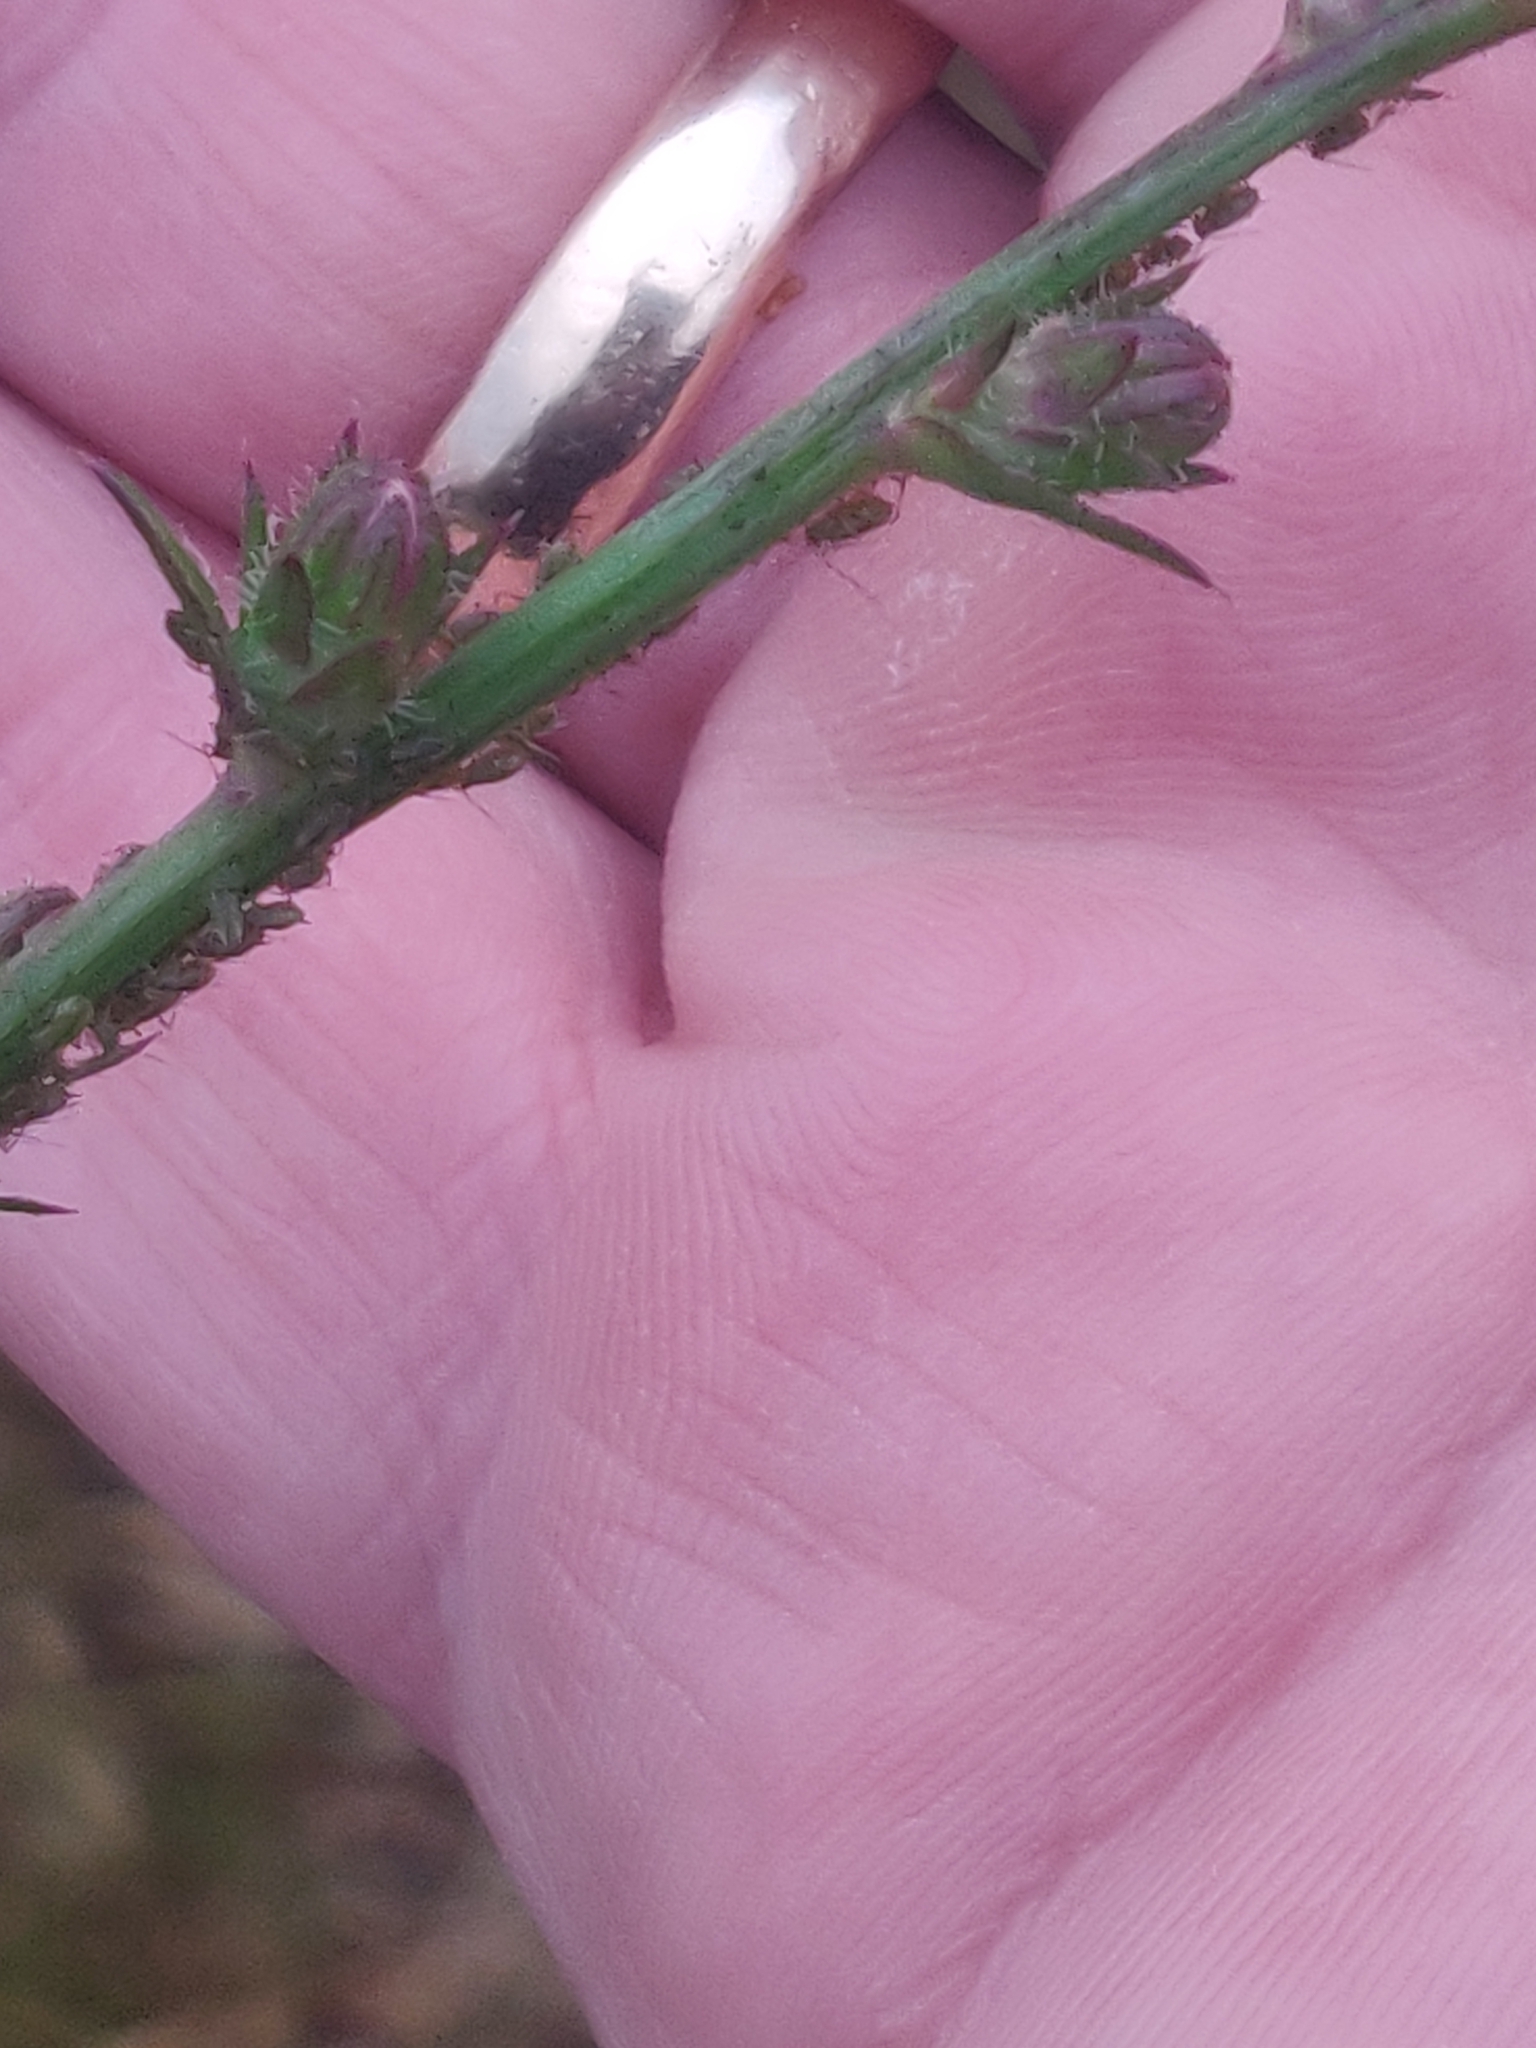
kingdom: Plantae
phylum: Tracheophyta
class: Magnoliopsida
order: Asterales
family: Asteraceae
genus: Cichorium
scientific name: Cichorium intybus
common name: Chicory
